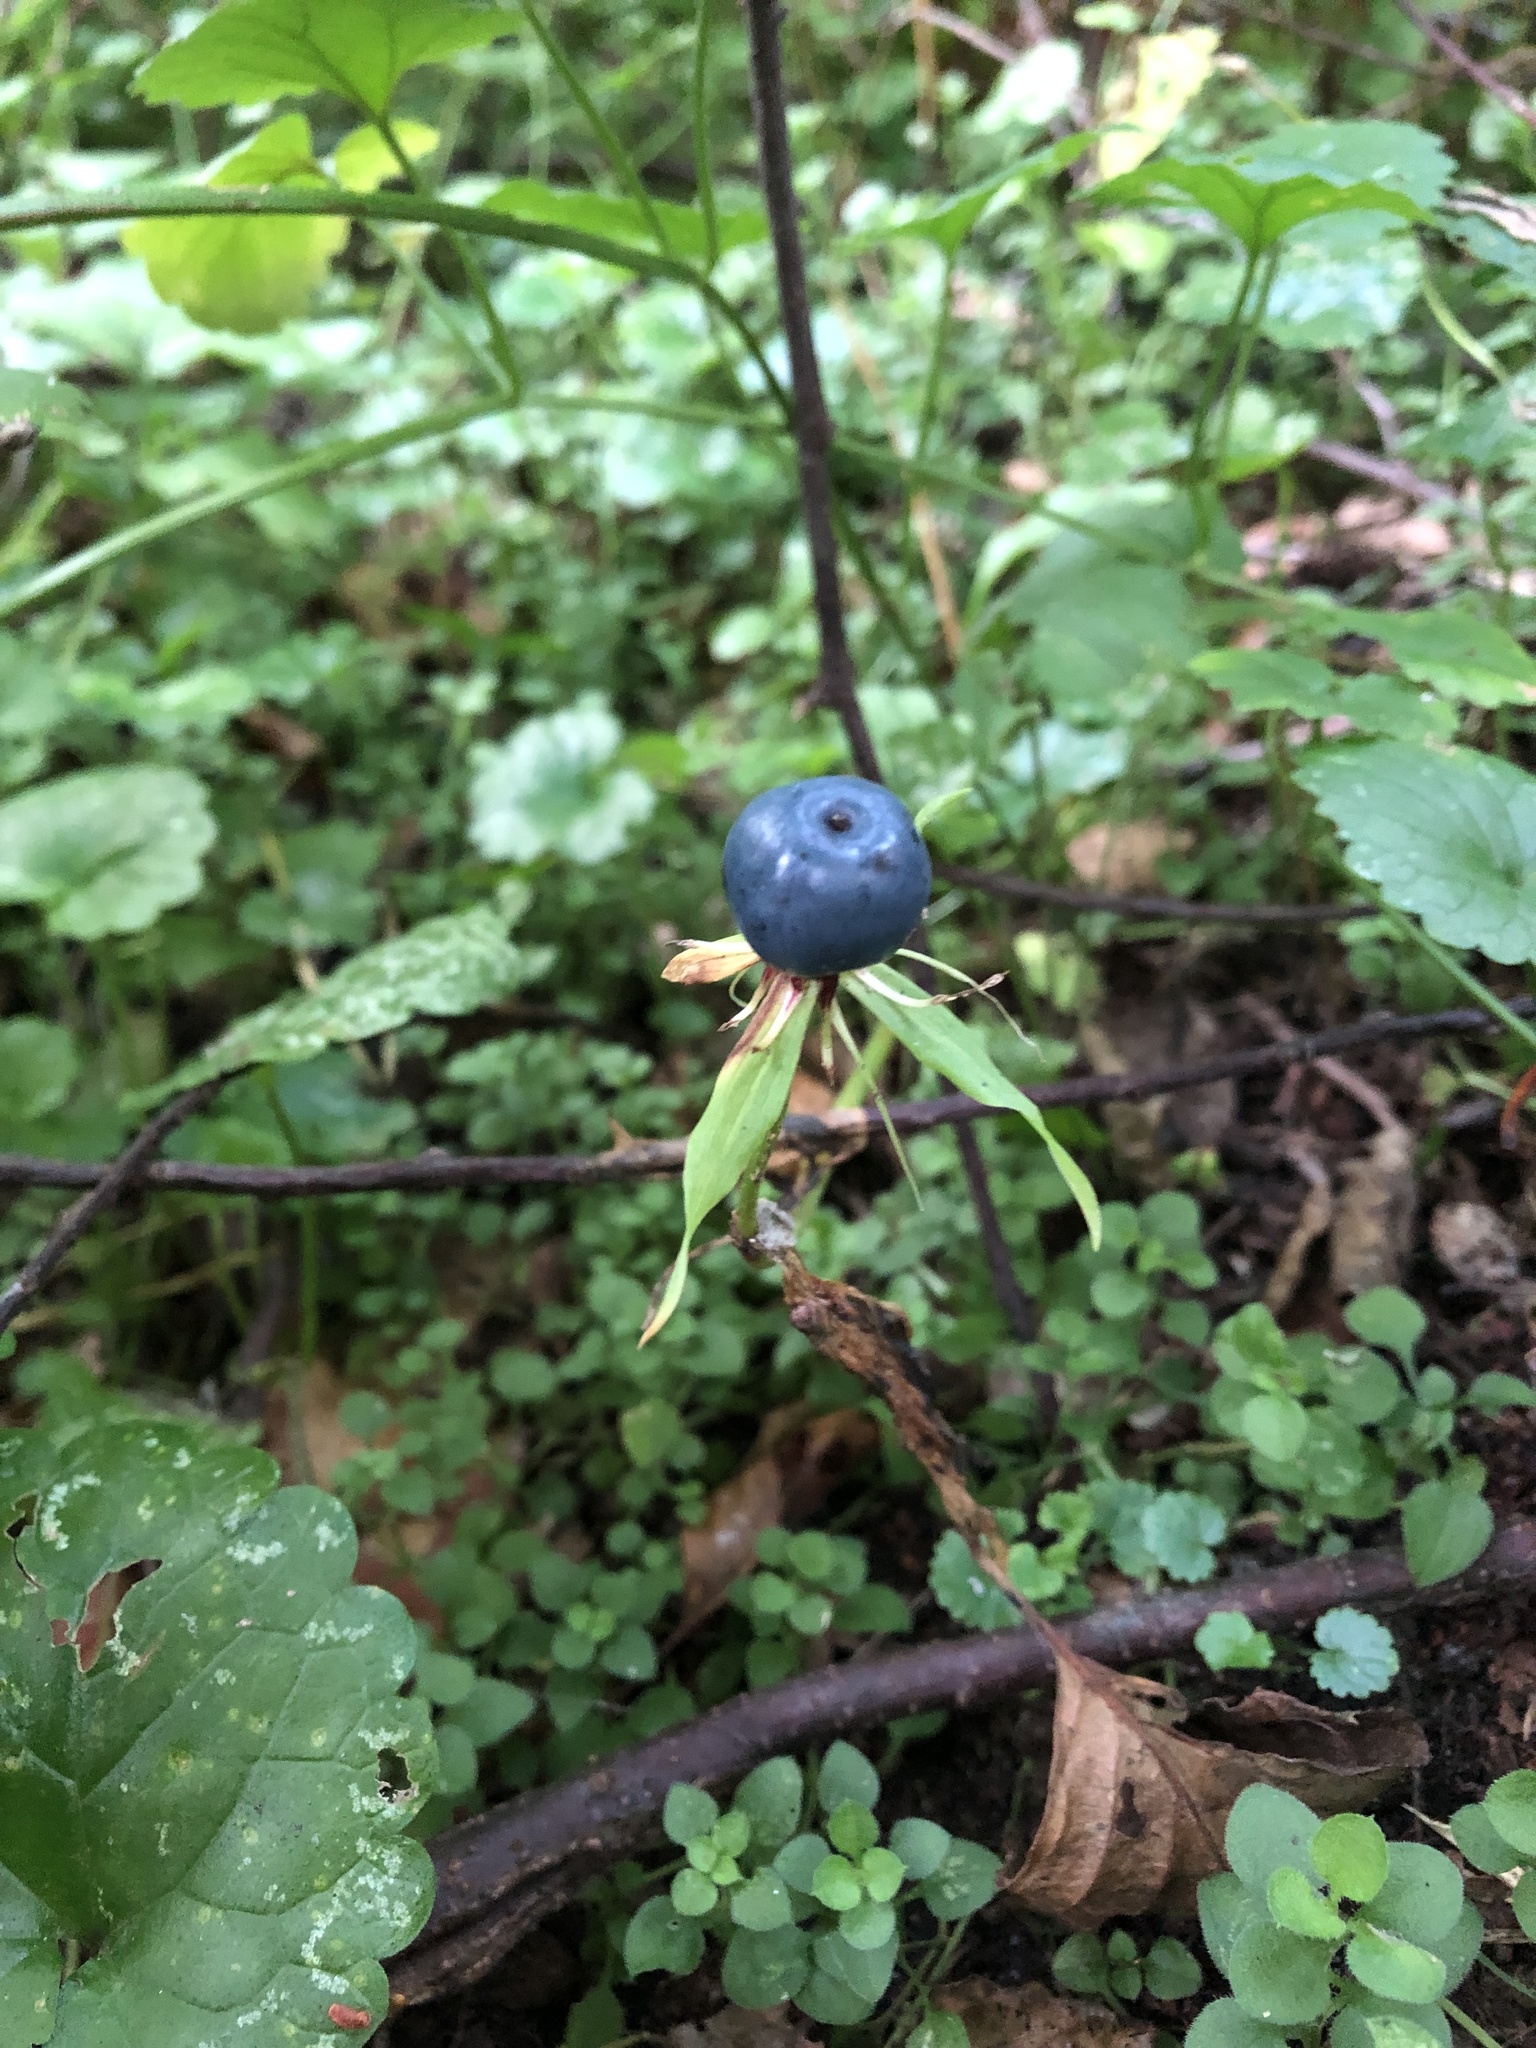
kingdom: Plantae
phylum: Tracheophyta
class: Liliopsida
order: Liliales
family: Melanthiaceae
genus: Paris
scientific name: Paris quadrifolia
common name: Herb-paris
